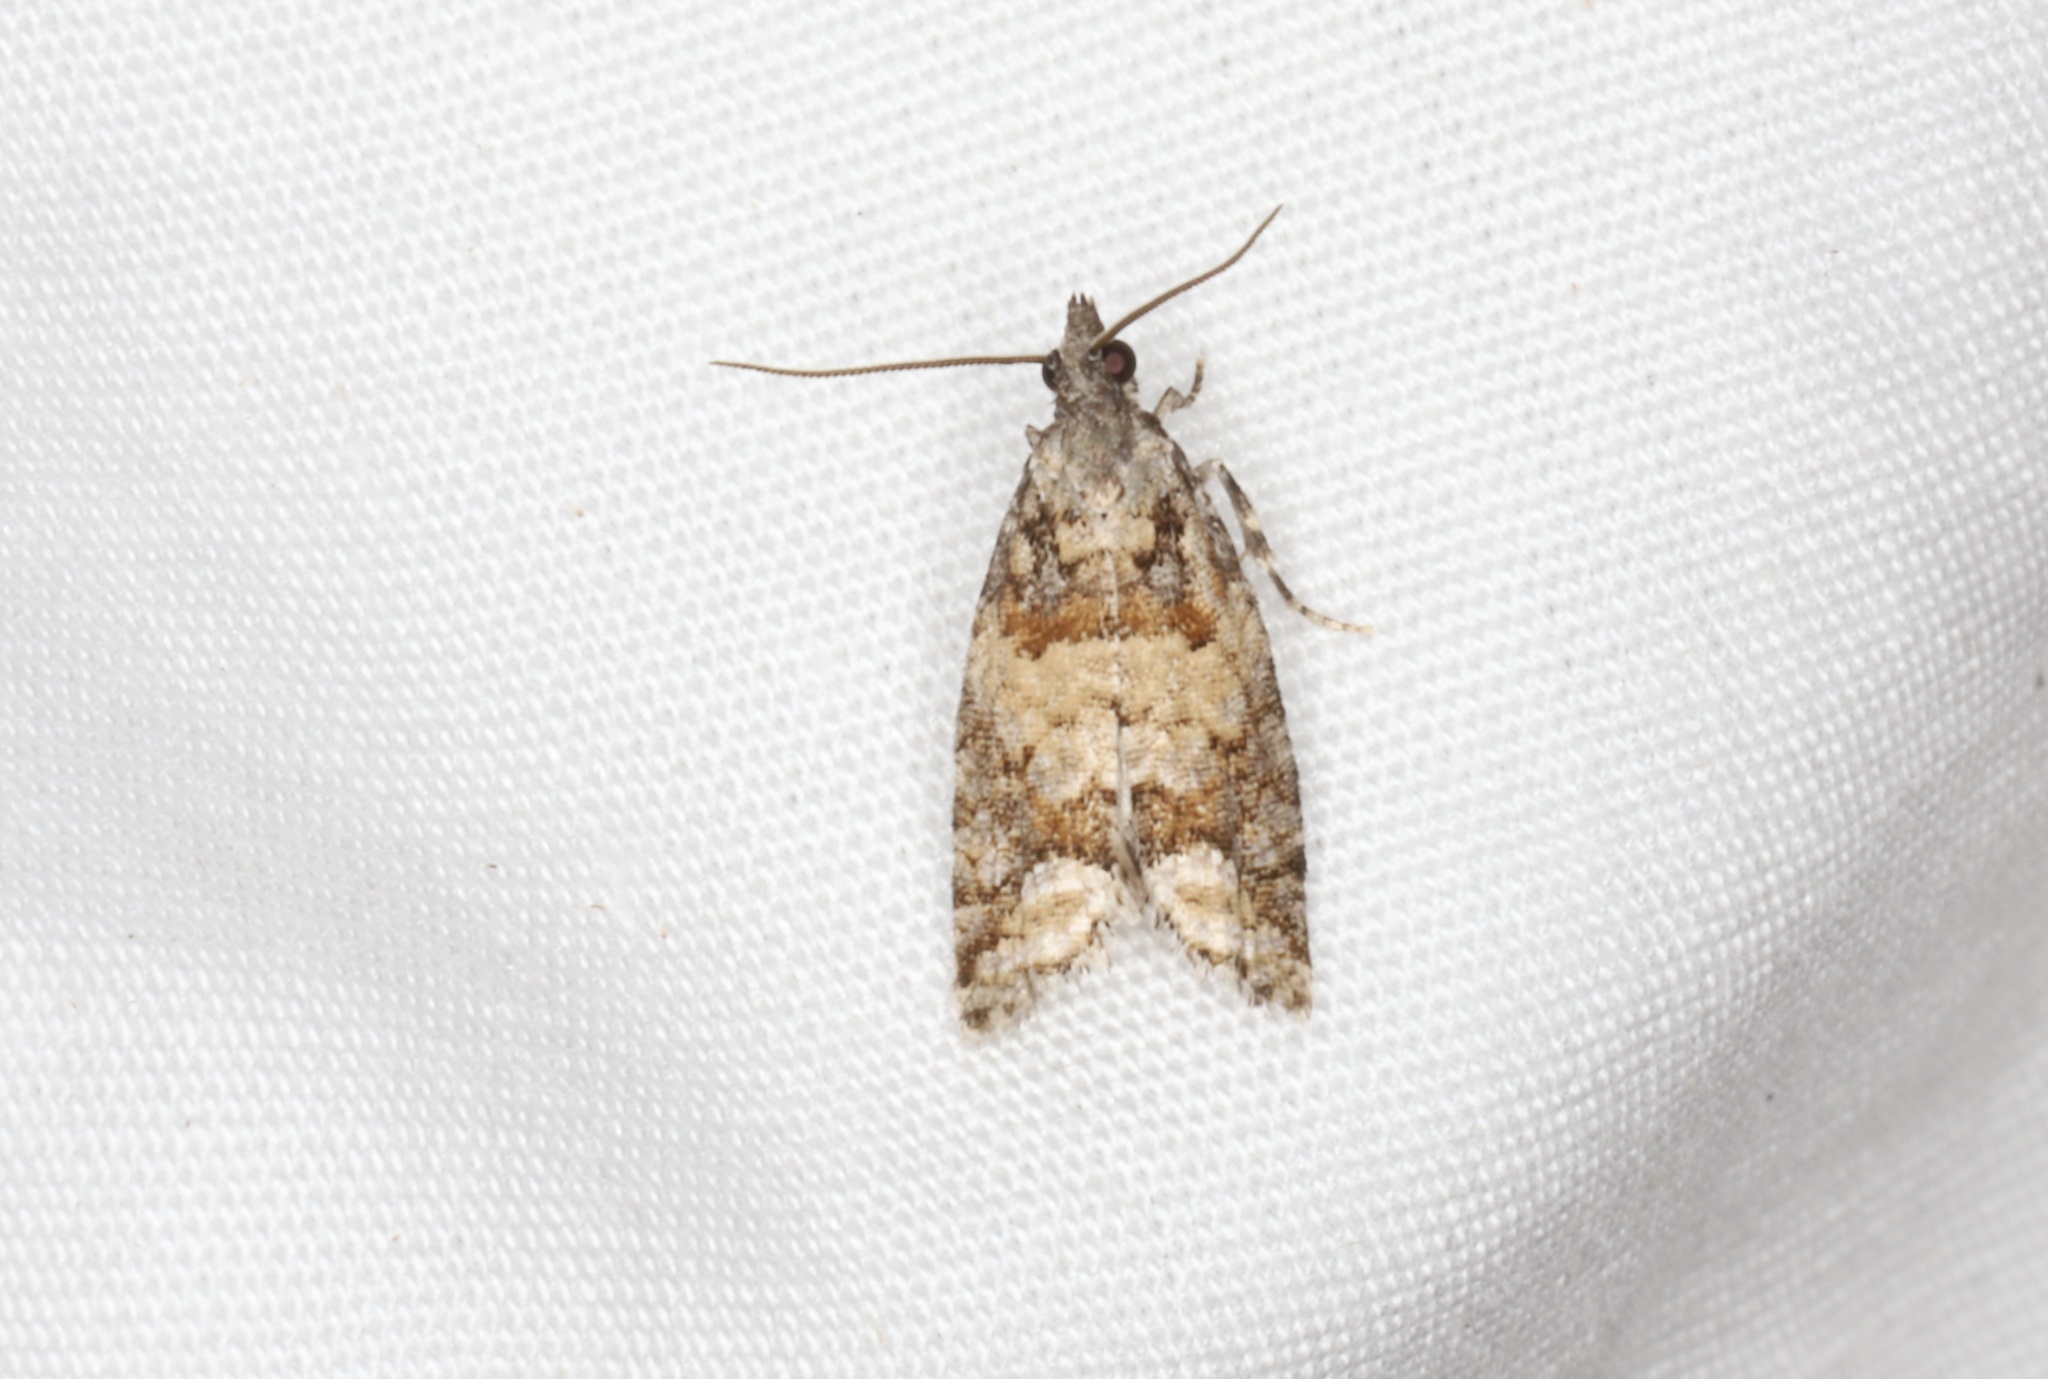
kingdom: Animalia
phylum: Arthropoda
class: Insecta
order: Lepidoptera
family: Tortricidae
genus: Epinotia
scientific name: Epinotia radicana
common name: Red-striped needleworm moth
